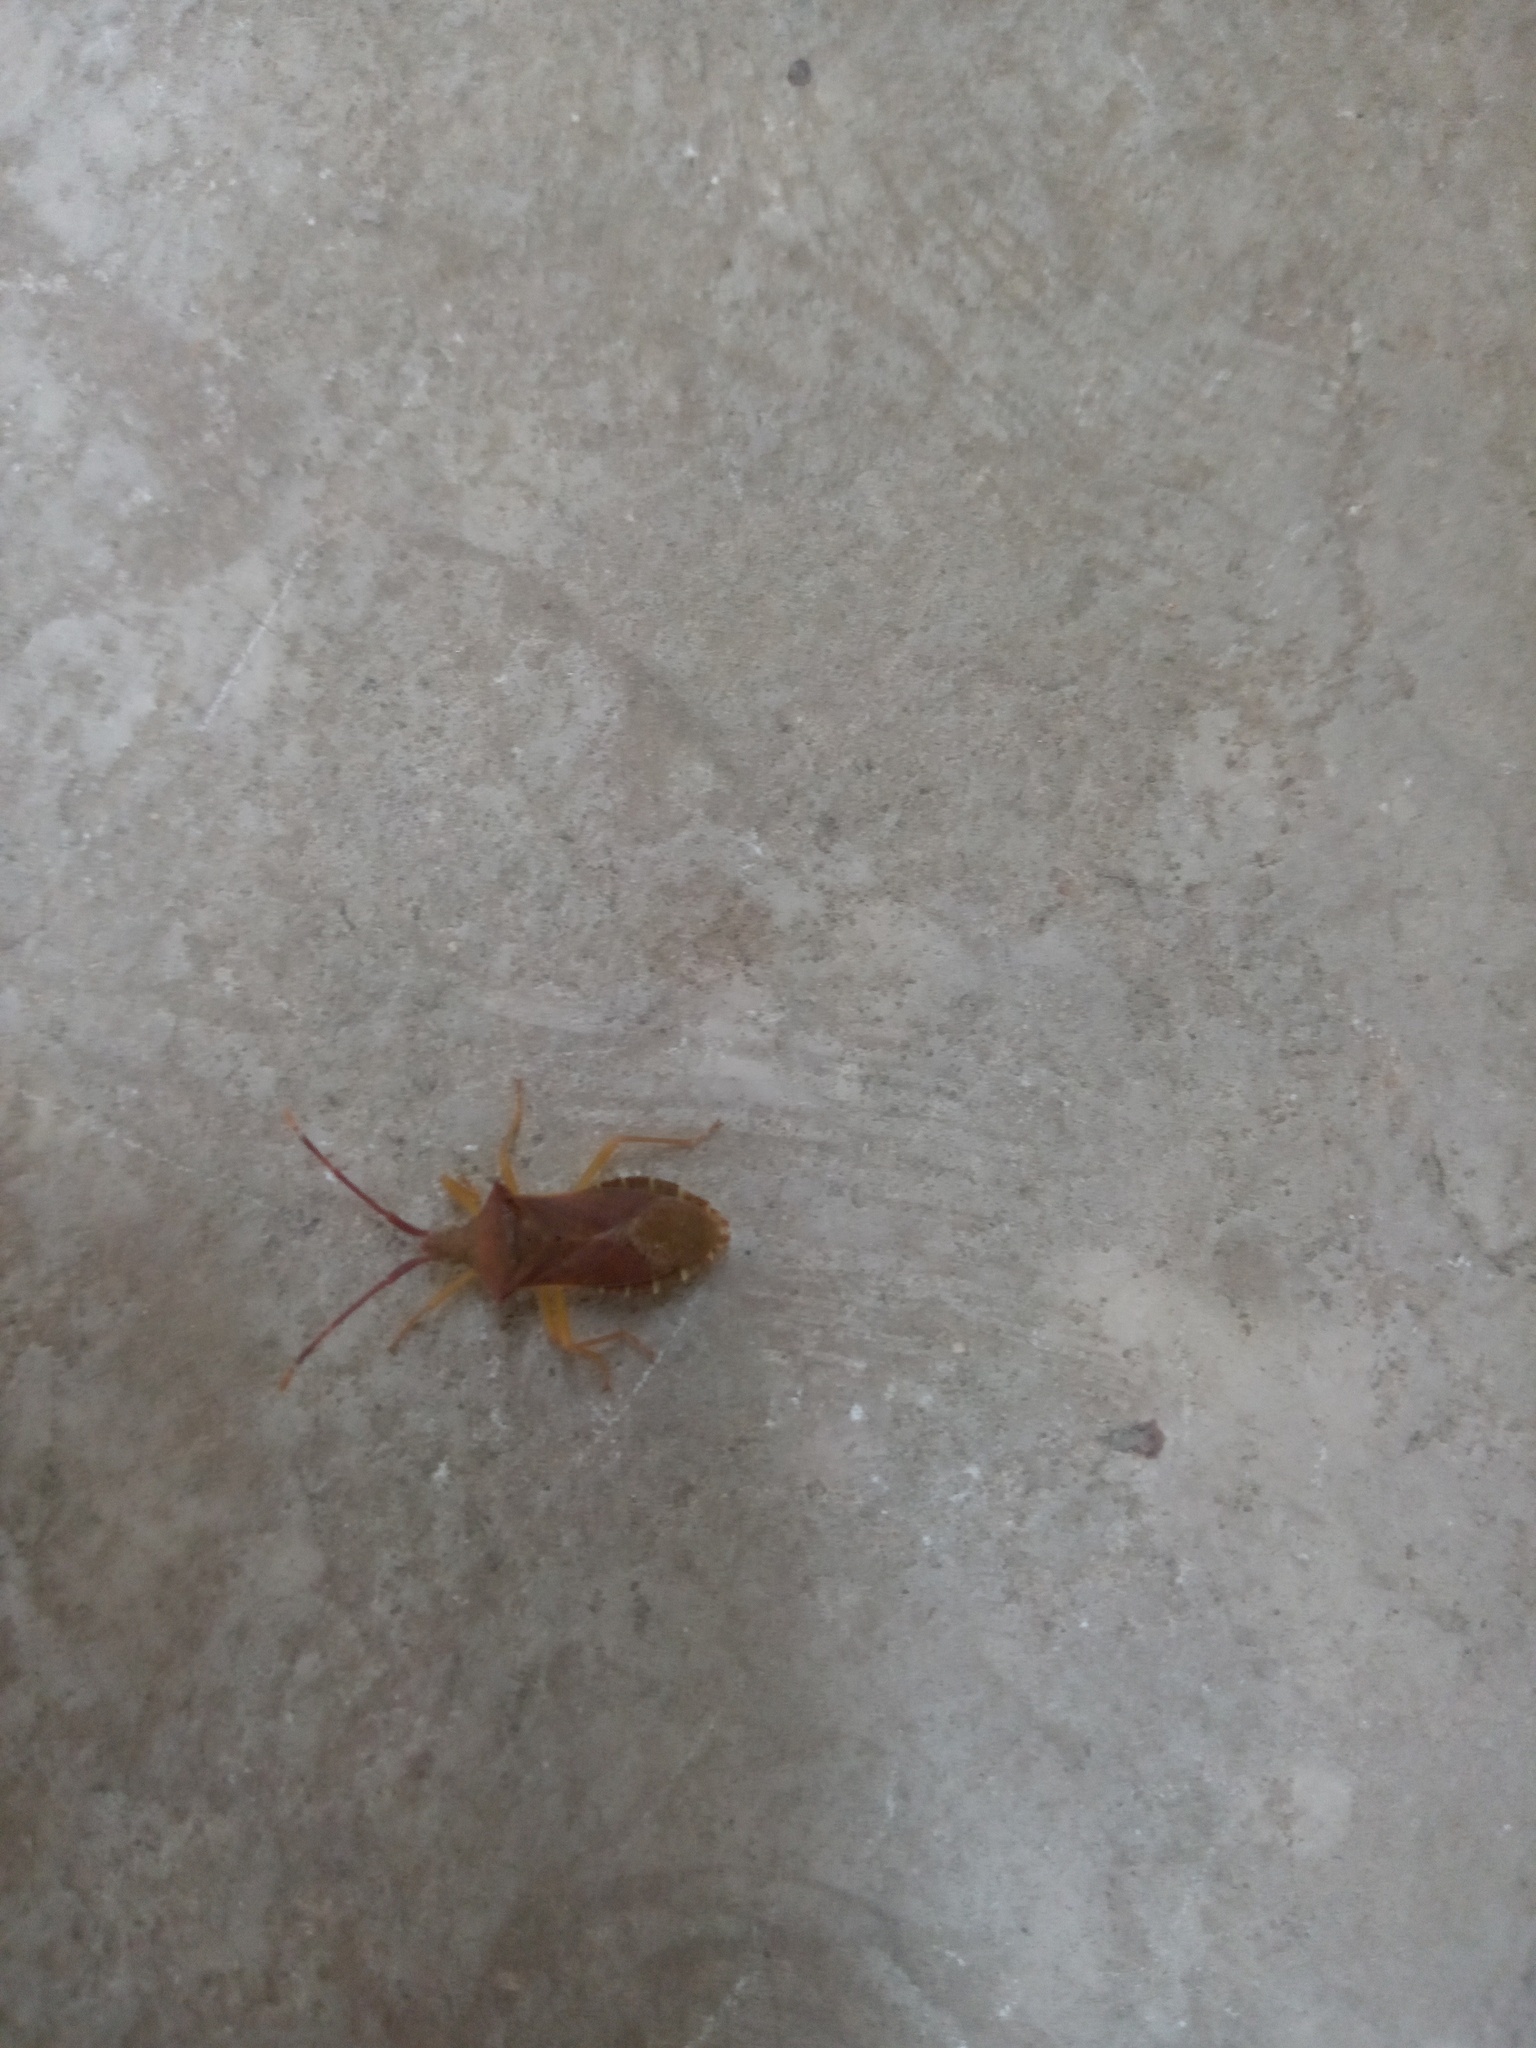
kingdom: Animalia
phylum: Arthropoda
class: Insecta
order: Hemiptera
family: Coreidae
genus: Gonocerus
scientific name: Gonocerus acuteangulatus
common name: Box bug
